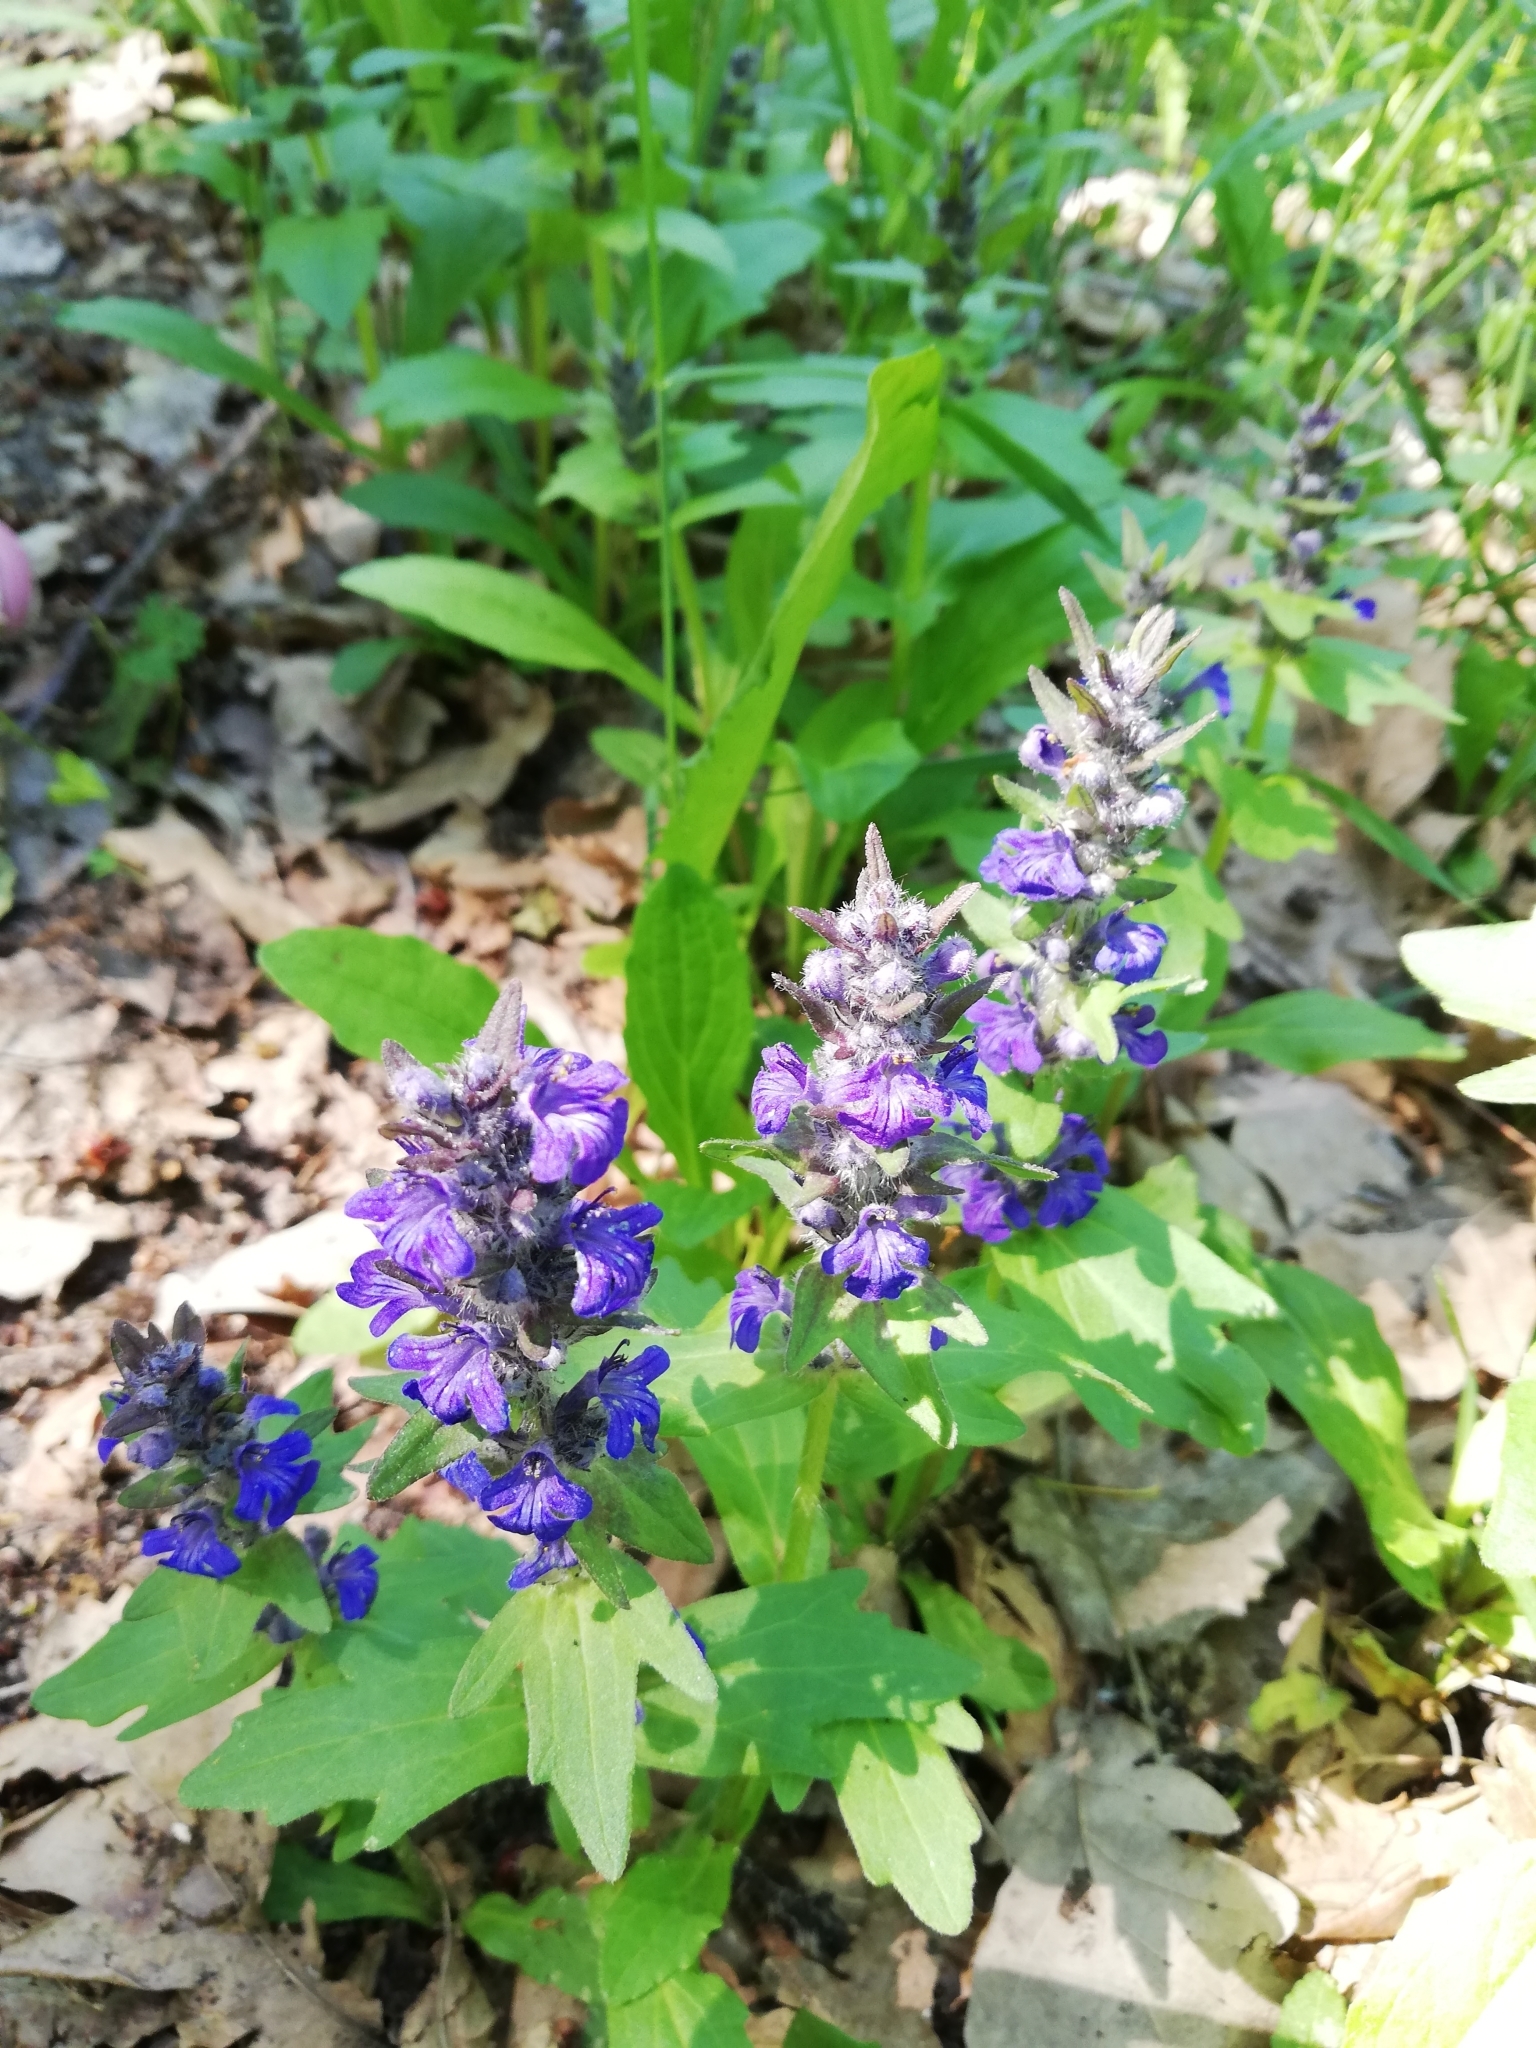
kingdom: Plantae
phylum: Tracheophyta
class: Magnoliopsida
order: Lamiales
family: Lamiaceae
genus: Ajuga
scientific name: Ajuga genevensis
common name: Blue bugle
